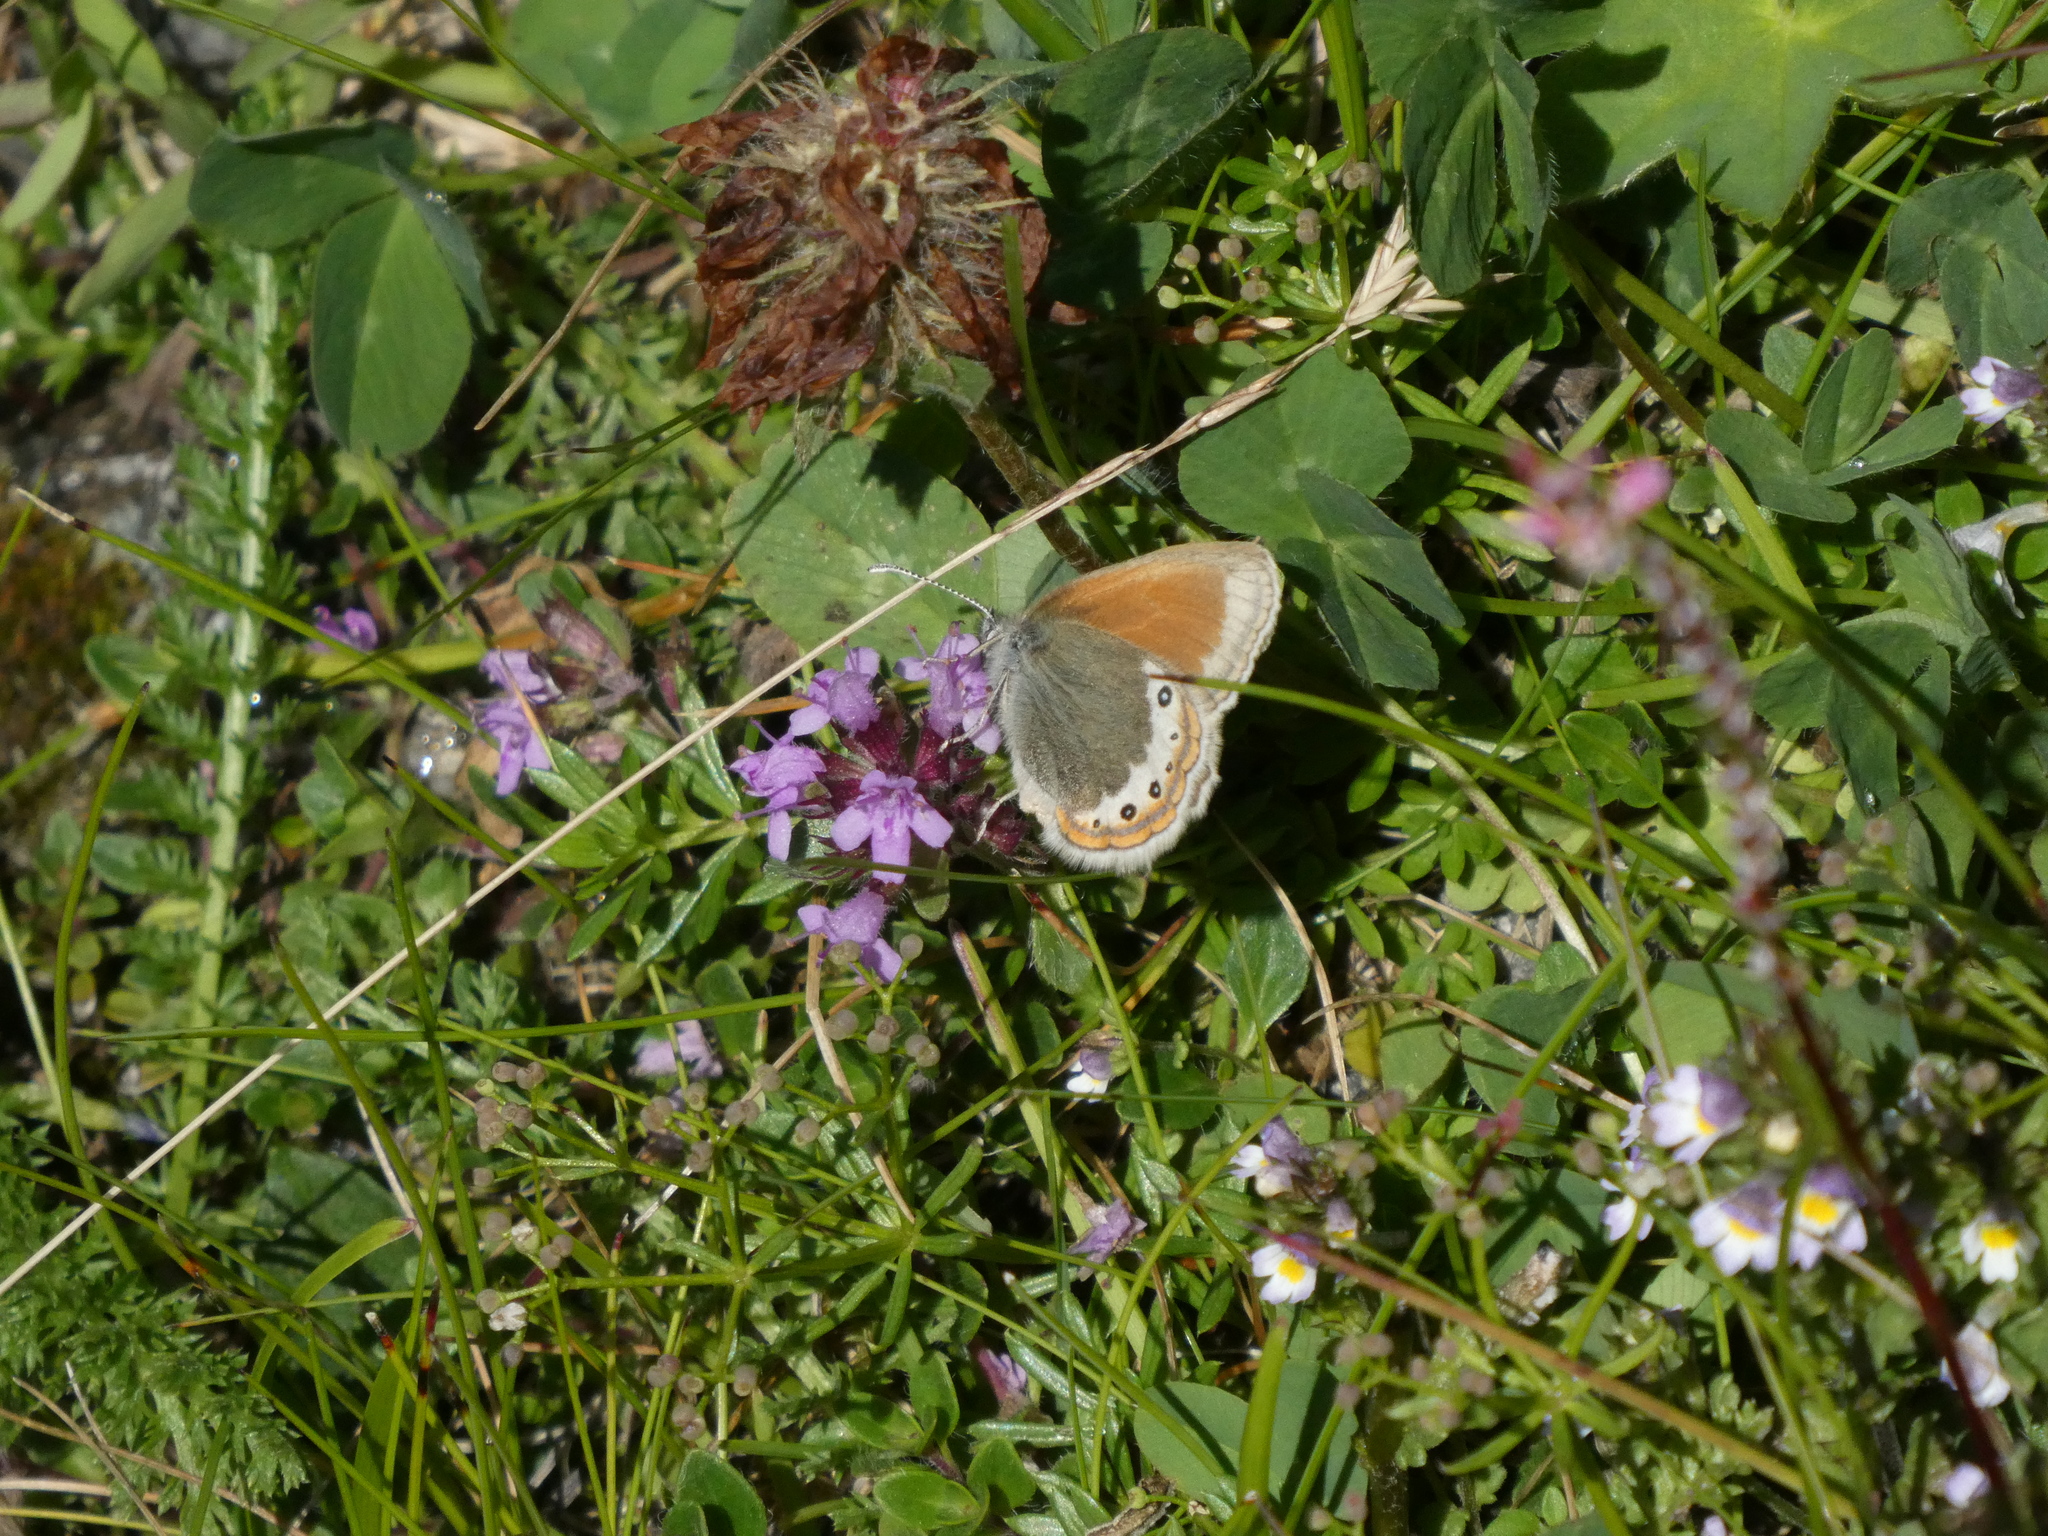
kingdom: Animalia
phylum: Arthropoda
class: Insecta
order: Lepidoptera
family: Nymphalidae
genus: Coenonympha
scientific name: Coenonympha
